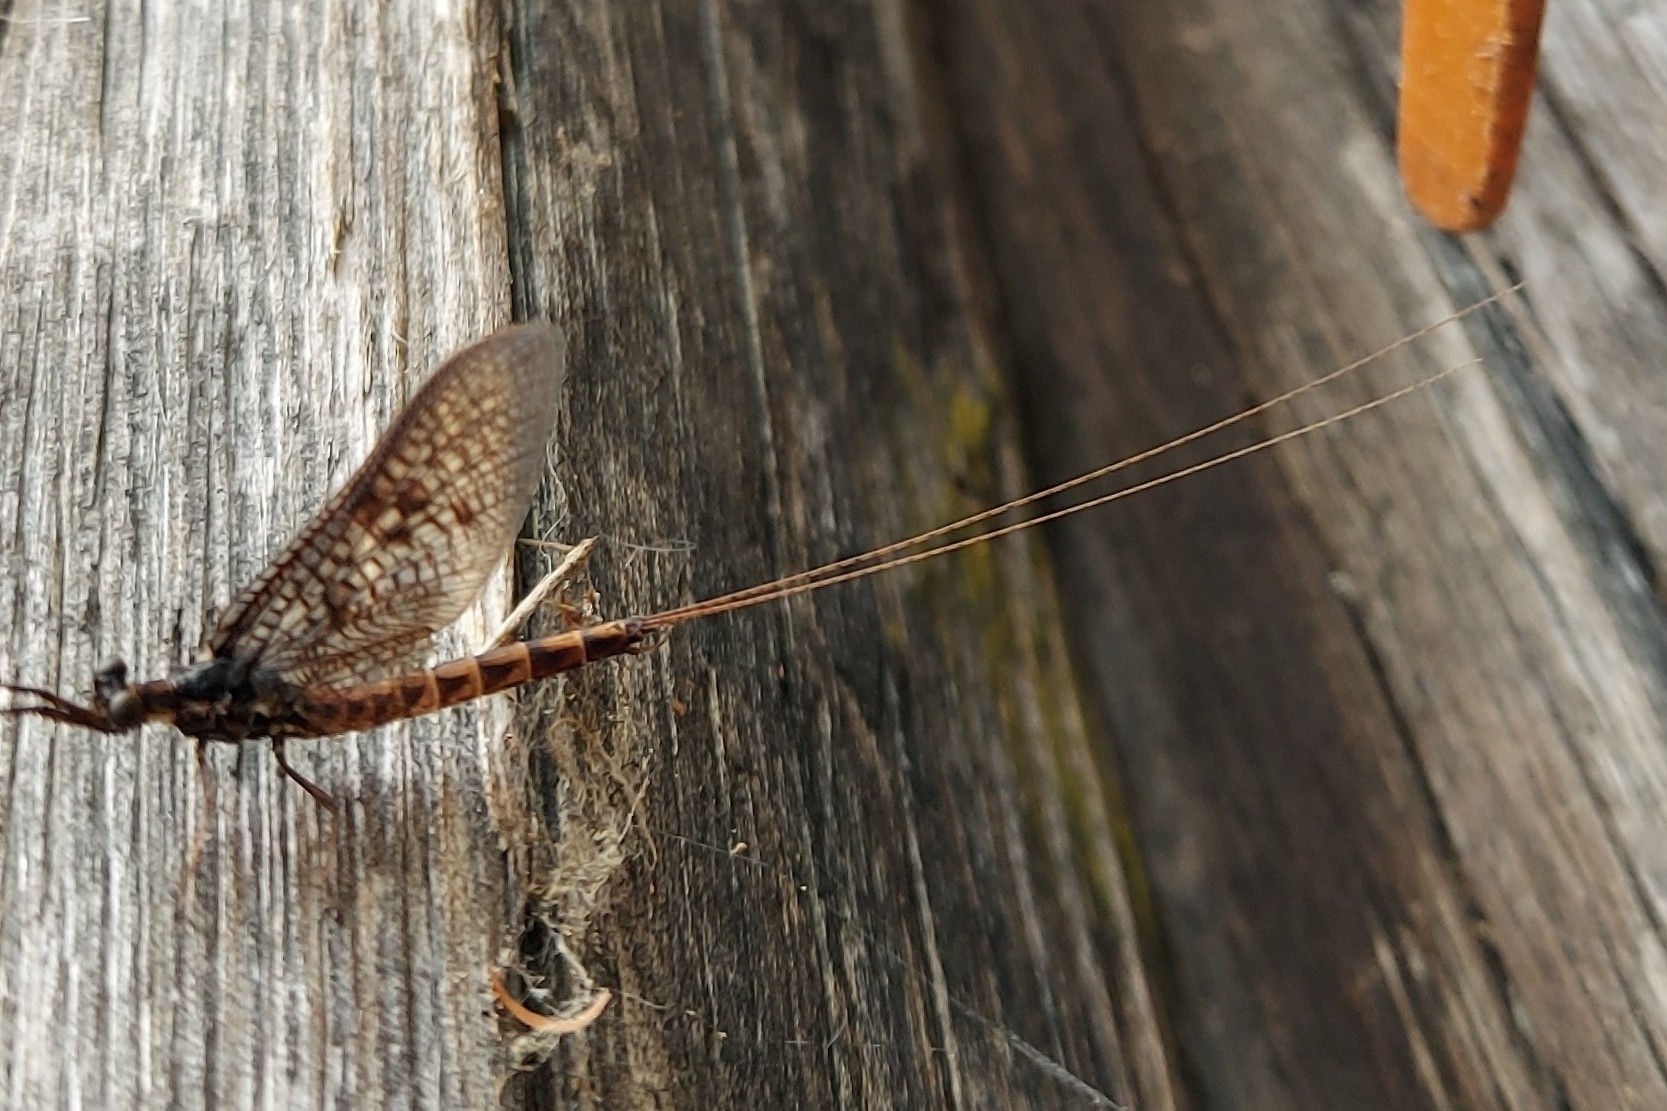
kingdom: Animalia
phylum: Arthropoda
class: Insecta
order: Ephemeroptera
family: Ephemeridae
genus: Ephemera
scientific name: Ephemera vulgata
